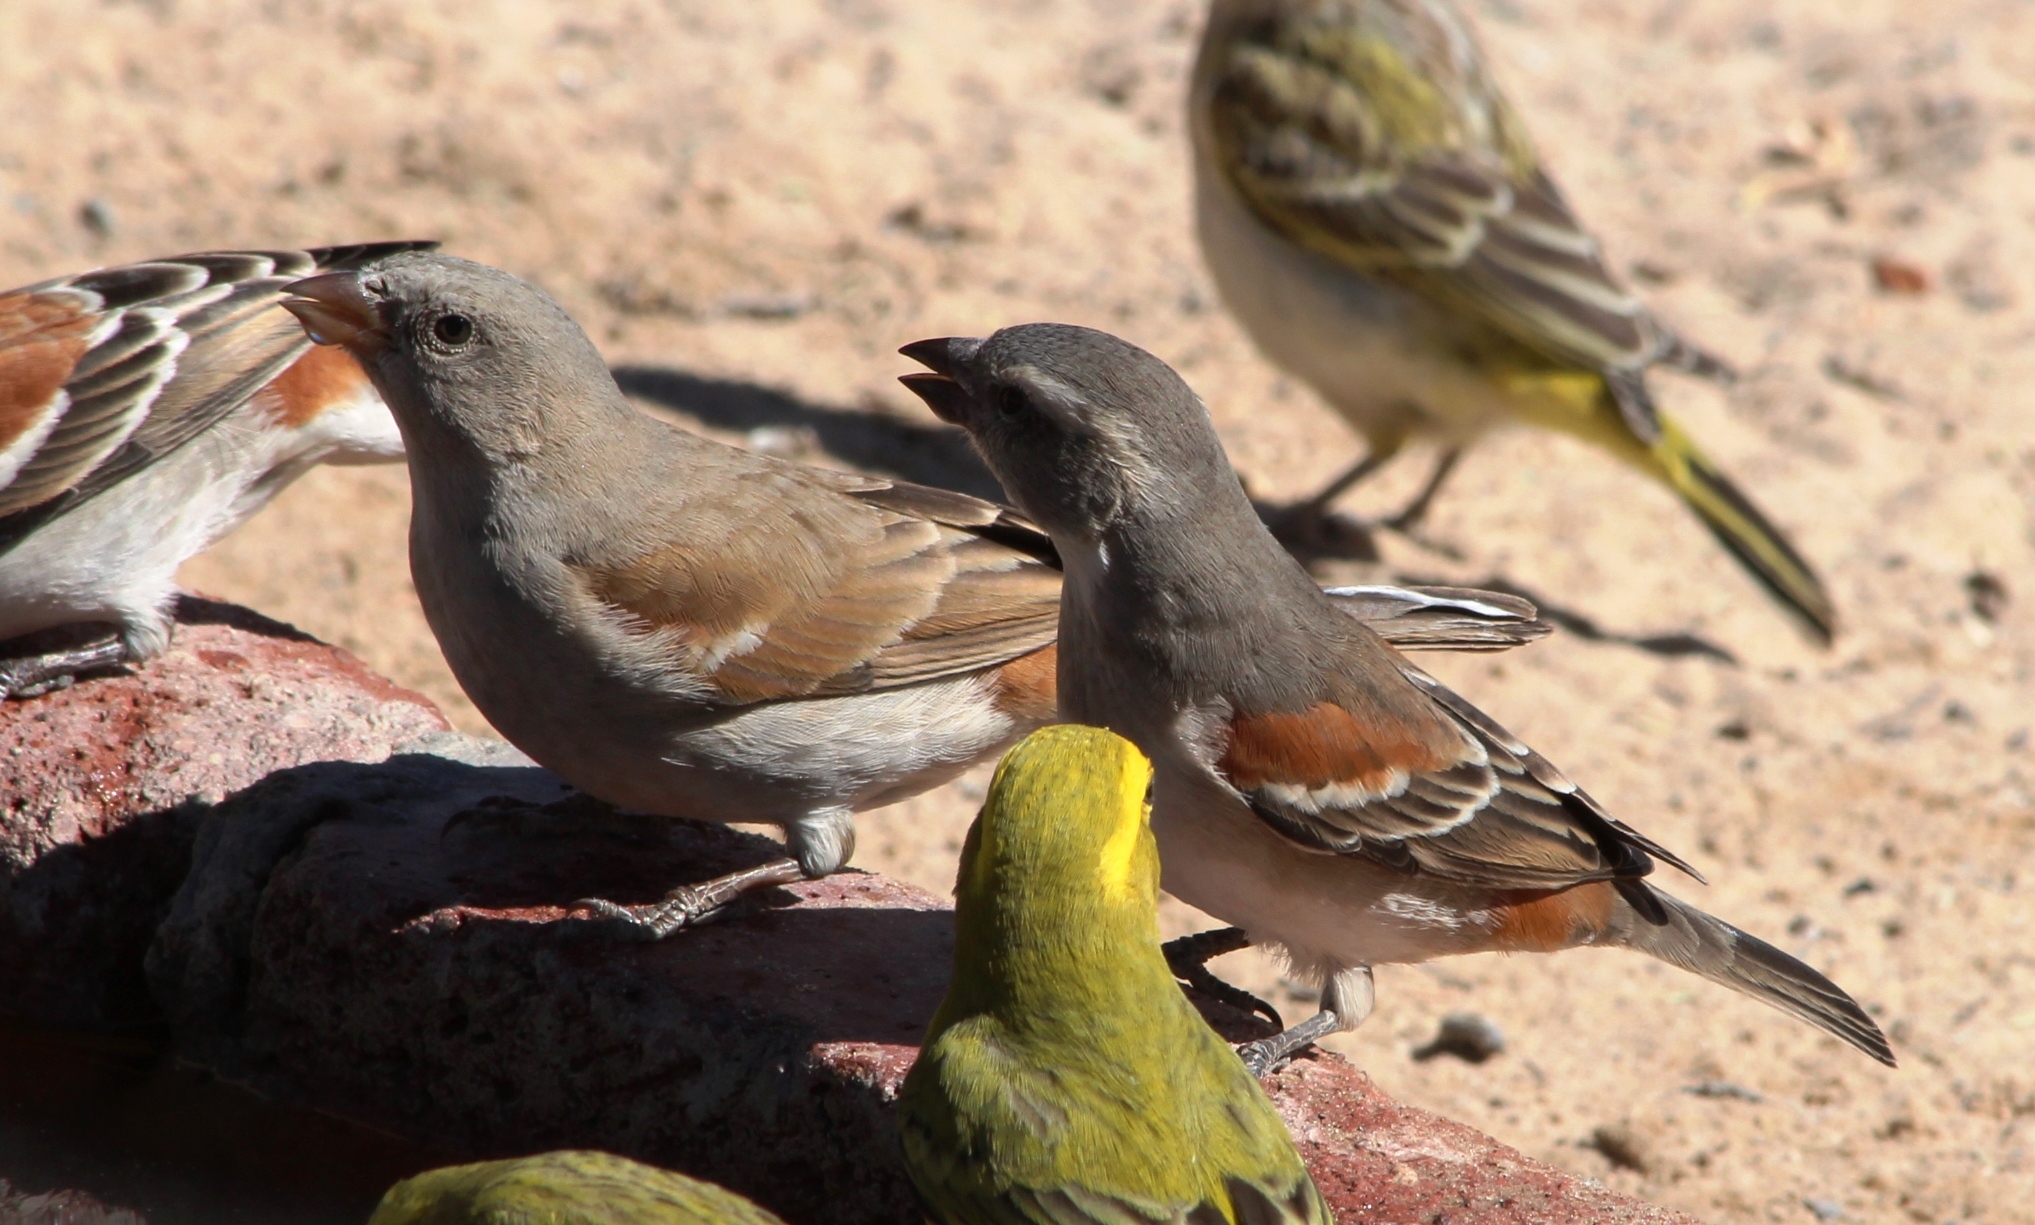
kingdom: Animalia
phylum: Chordata
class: Aves
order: Passeriformes
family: Passeridae
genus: Passer
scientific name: Passer melanurus
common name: Cape sparrow
